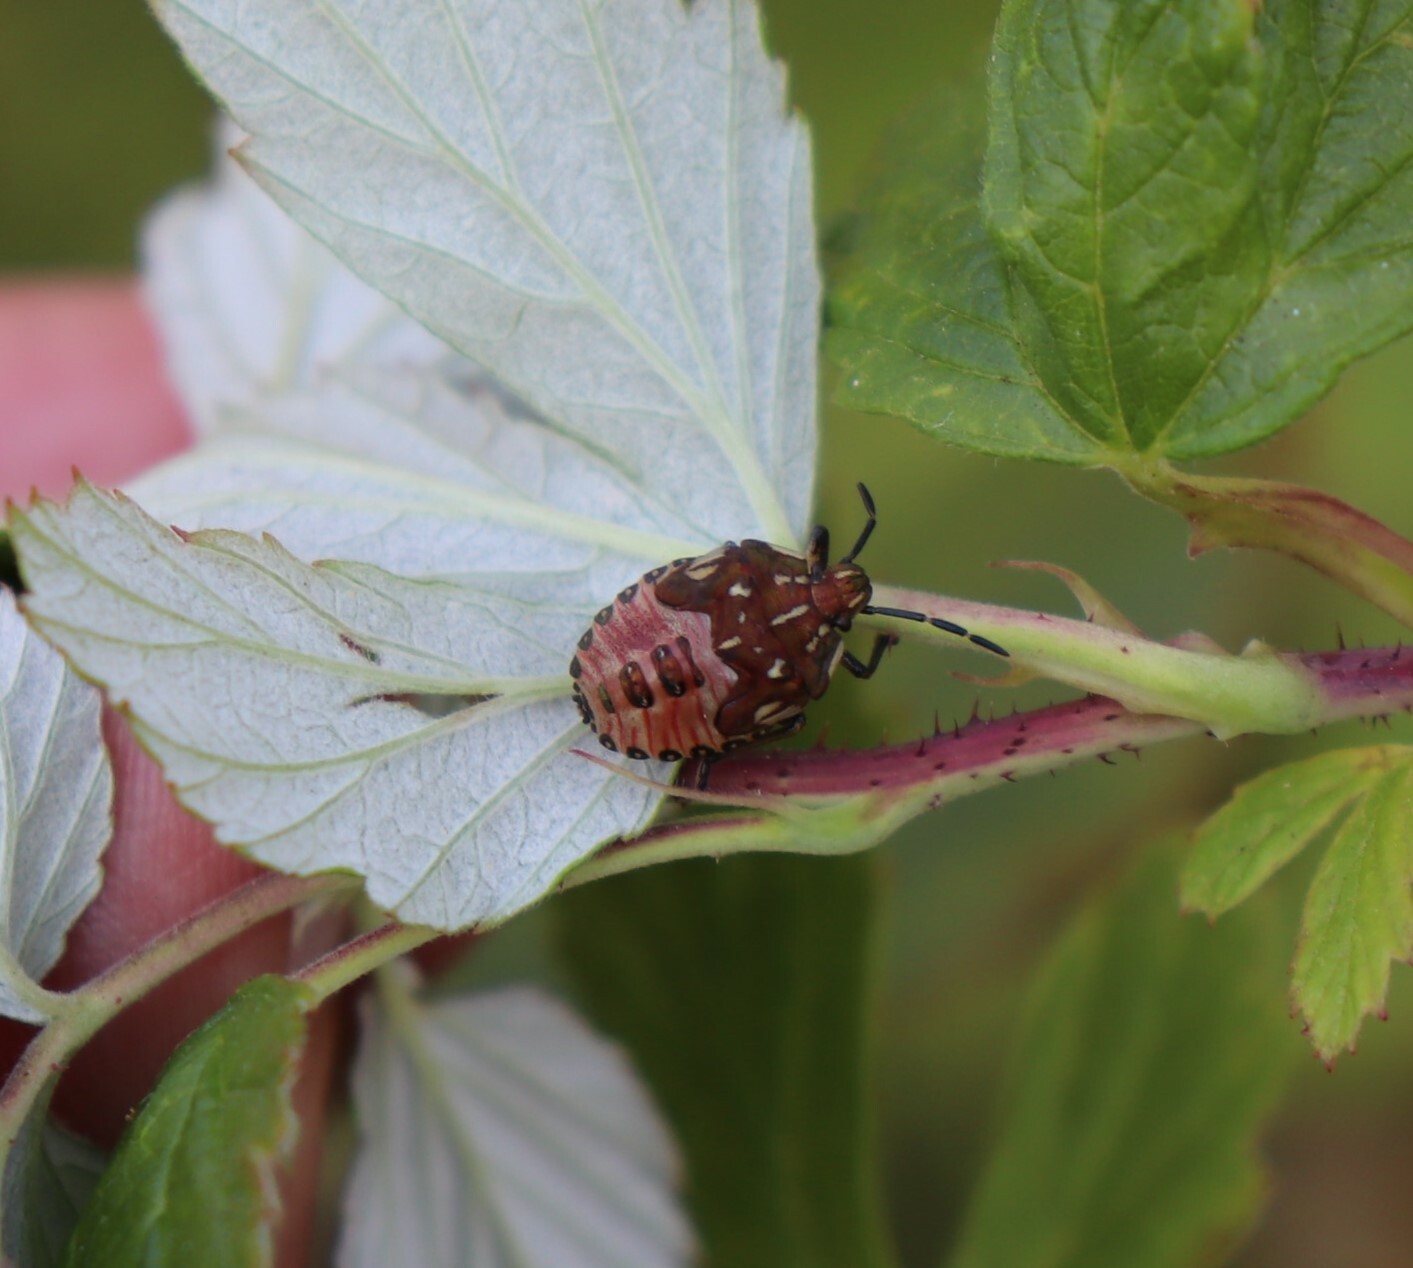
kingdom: Animalia
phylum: Arthropoda
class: Insecta
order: Hemiptera
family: Pentatomidae
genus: Carpocoris
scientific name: Carpocoris purpureipennis
